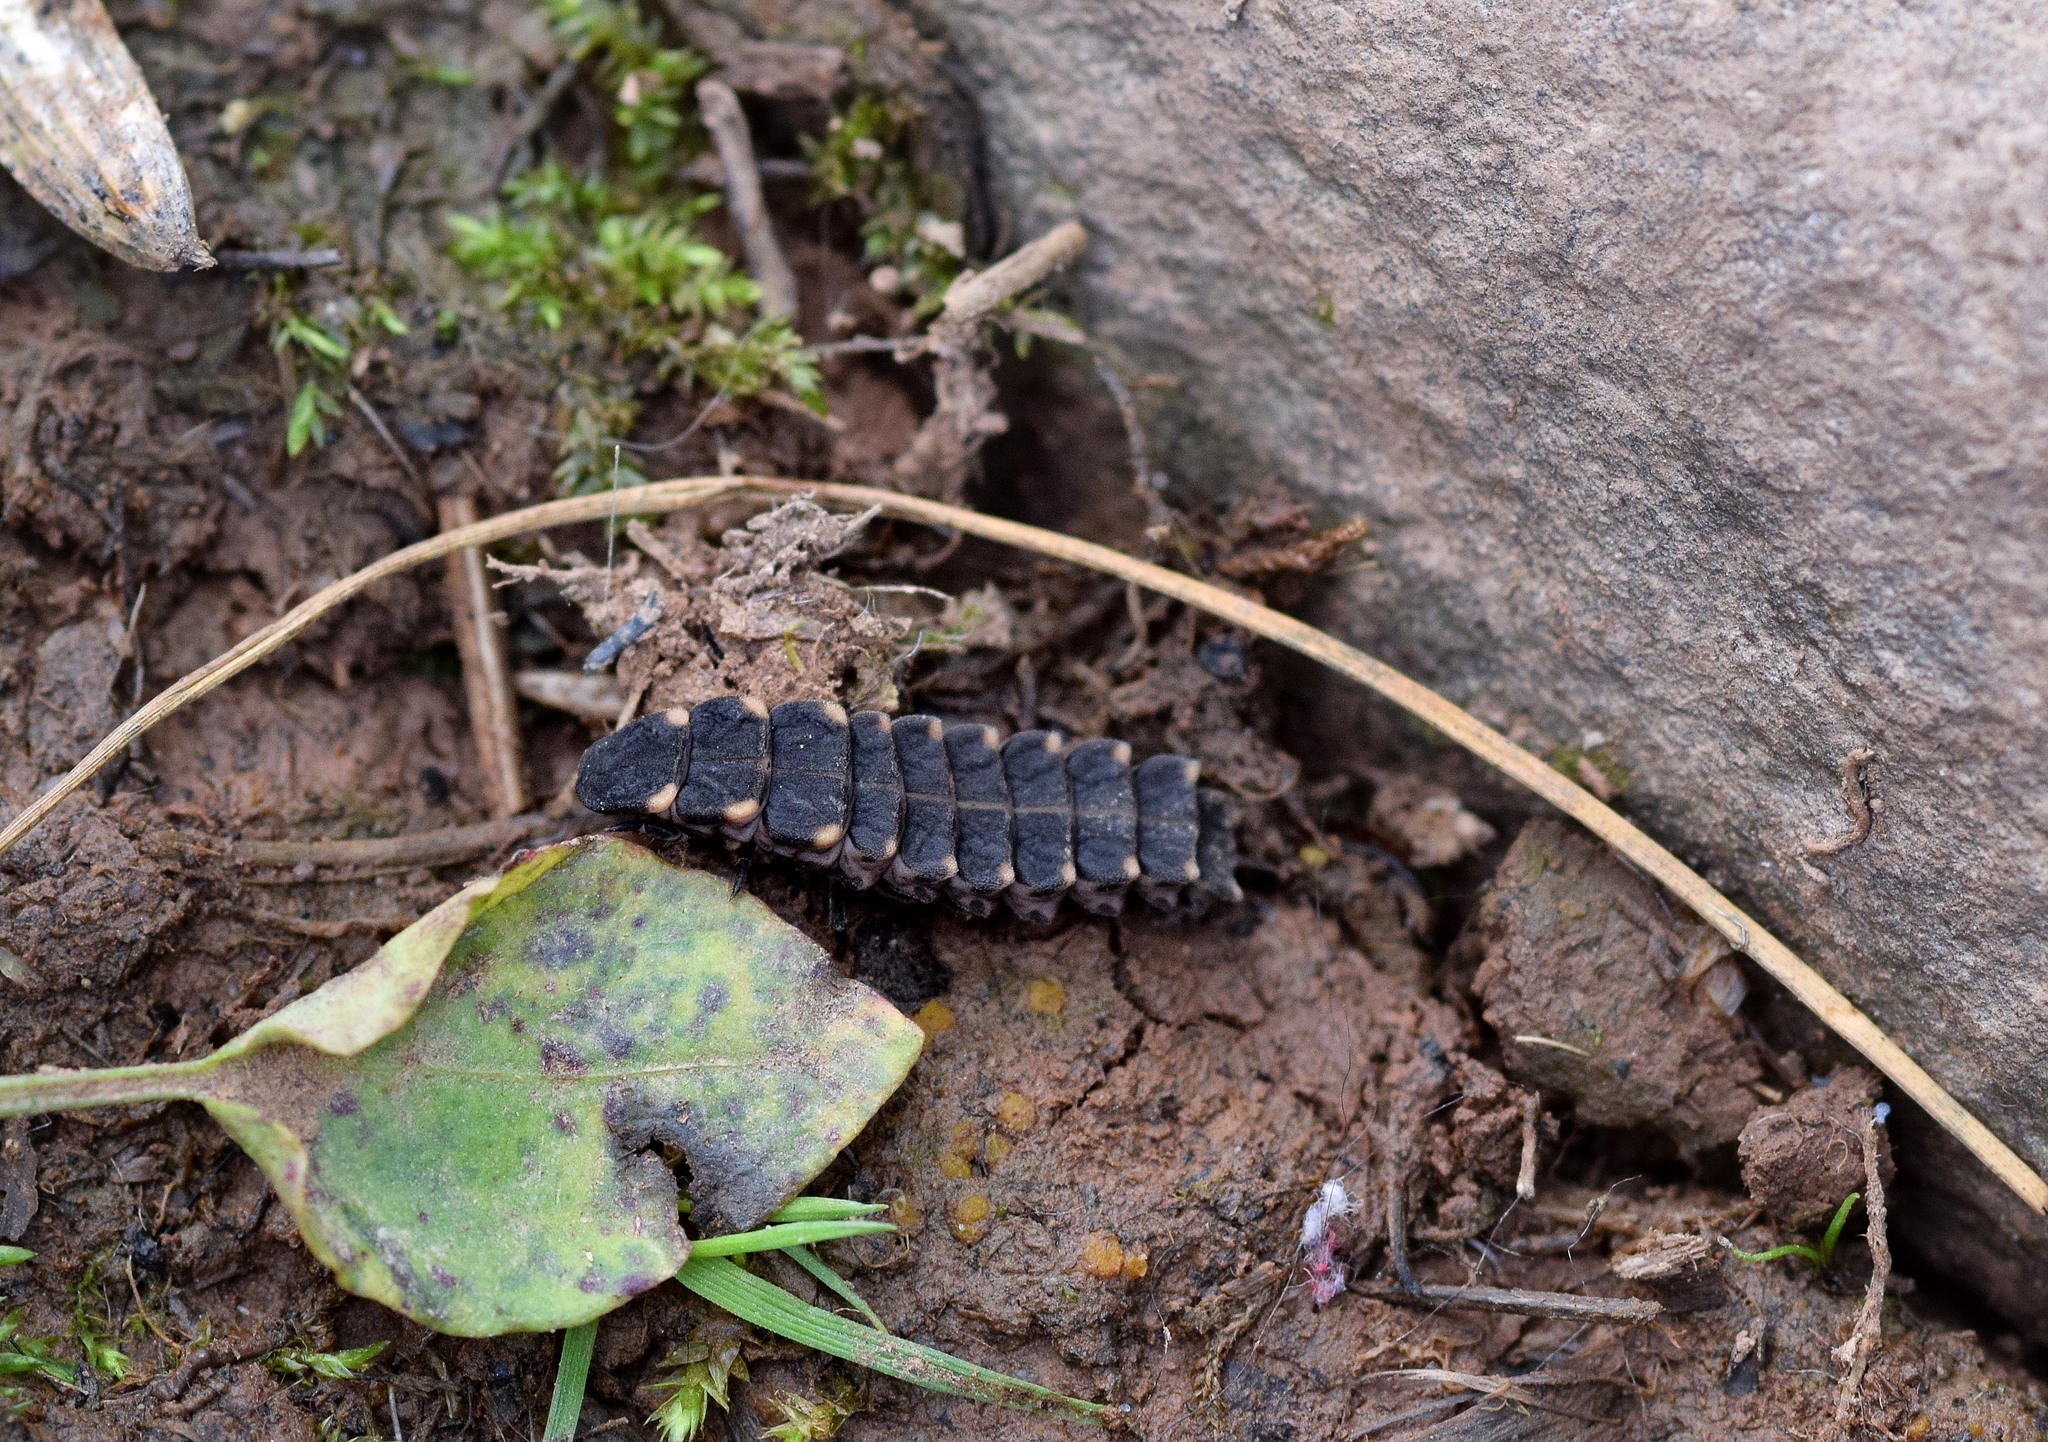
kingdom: Animalia
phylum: Arthropoda
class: Insecta
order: Coleoptera
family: Lampyridae
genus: Lampyris
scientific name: Lampyris noctiluca
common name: Glow-worm
